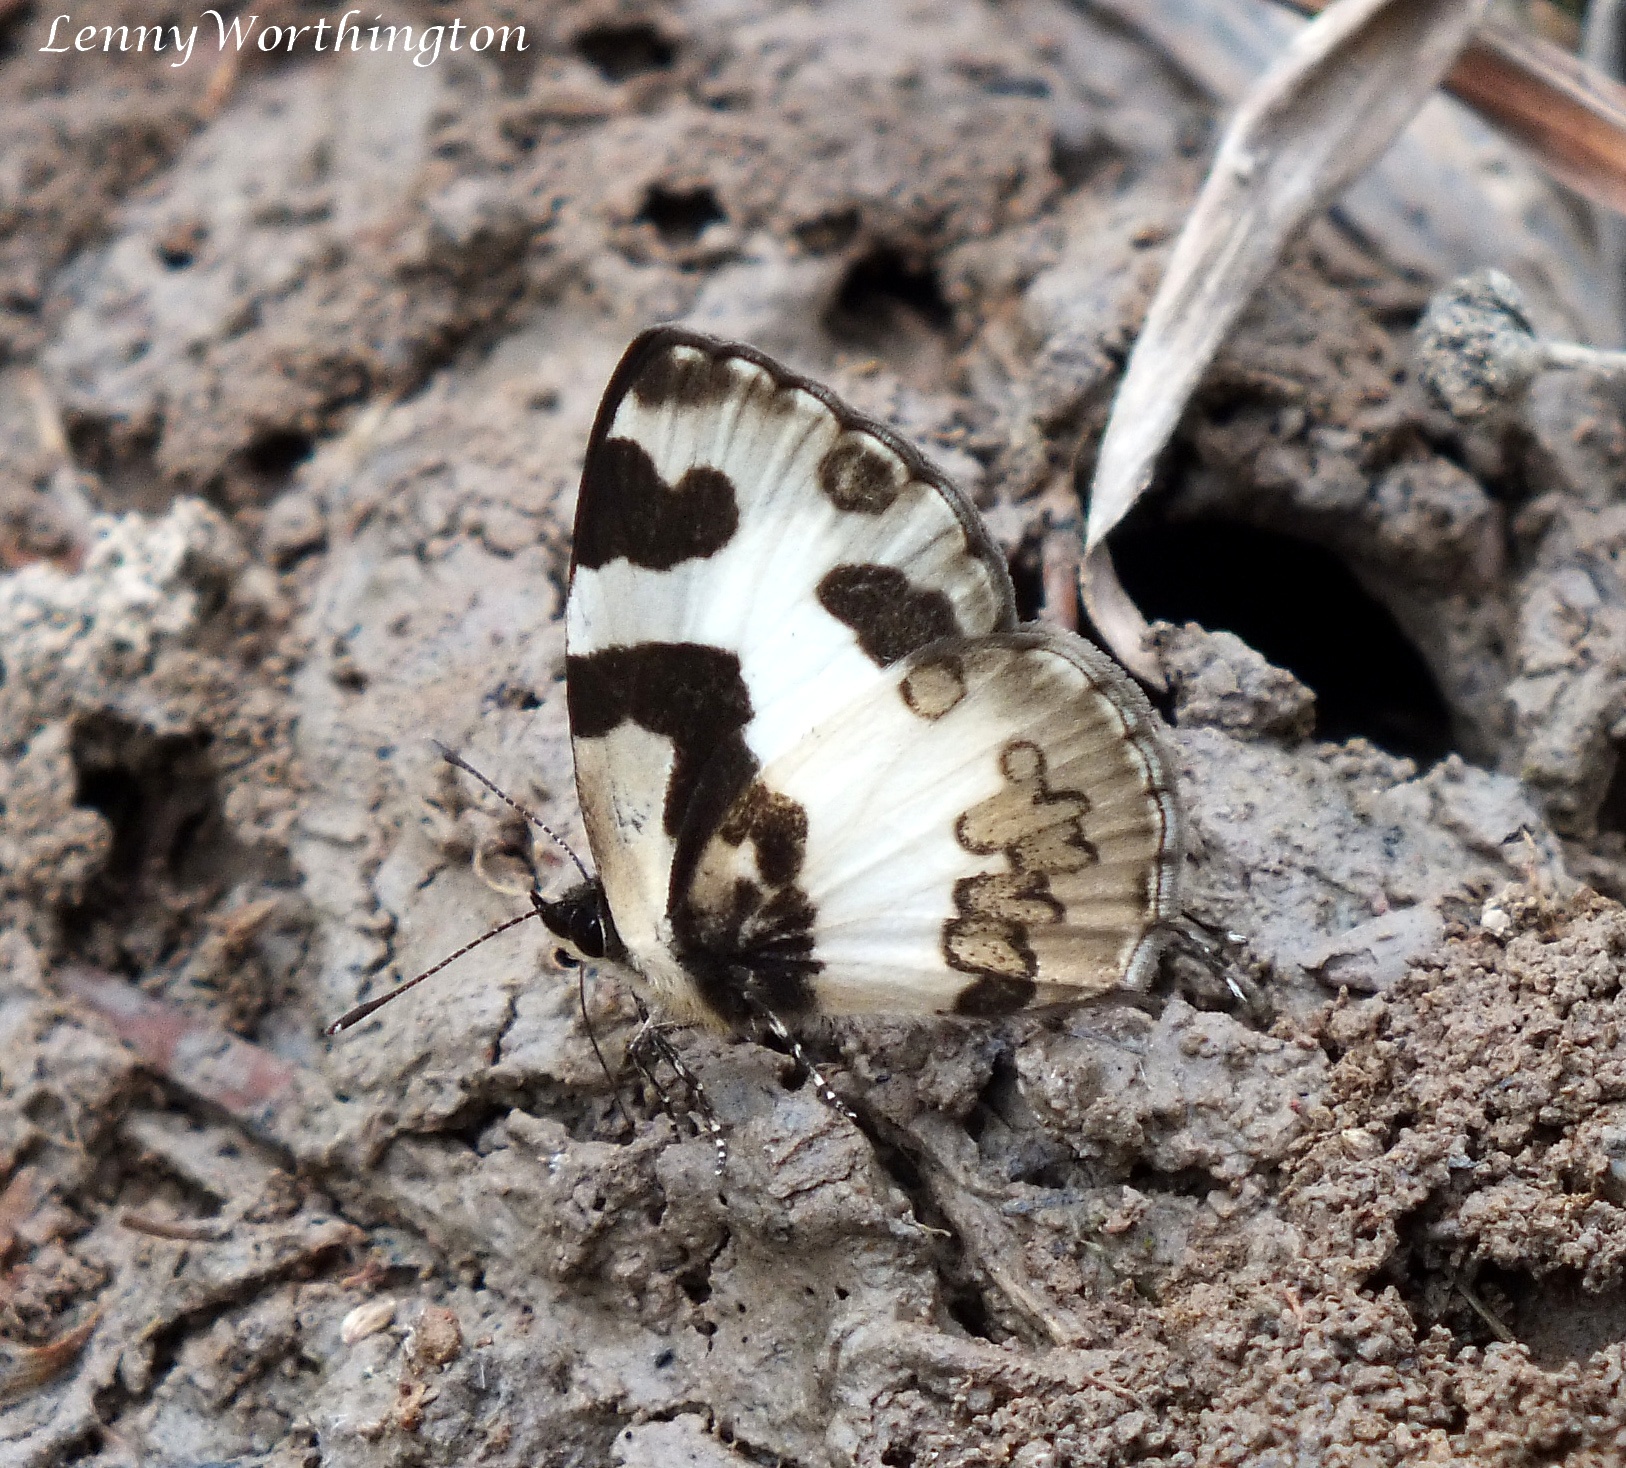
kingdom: Animalia
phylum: Arthropoda
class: Insecta
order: Lepidoptera
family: Lycaenidae
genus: Caleta
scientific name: Caleta elna
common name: Elbowed pierrot
